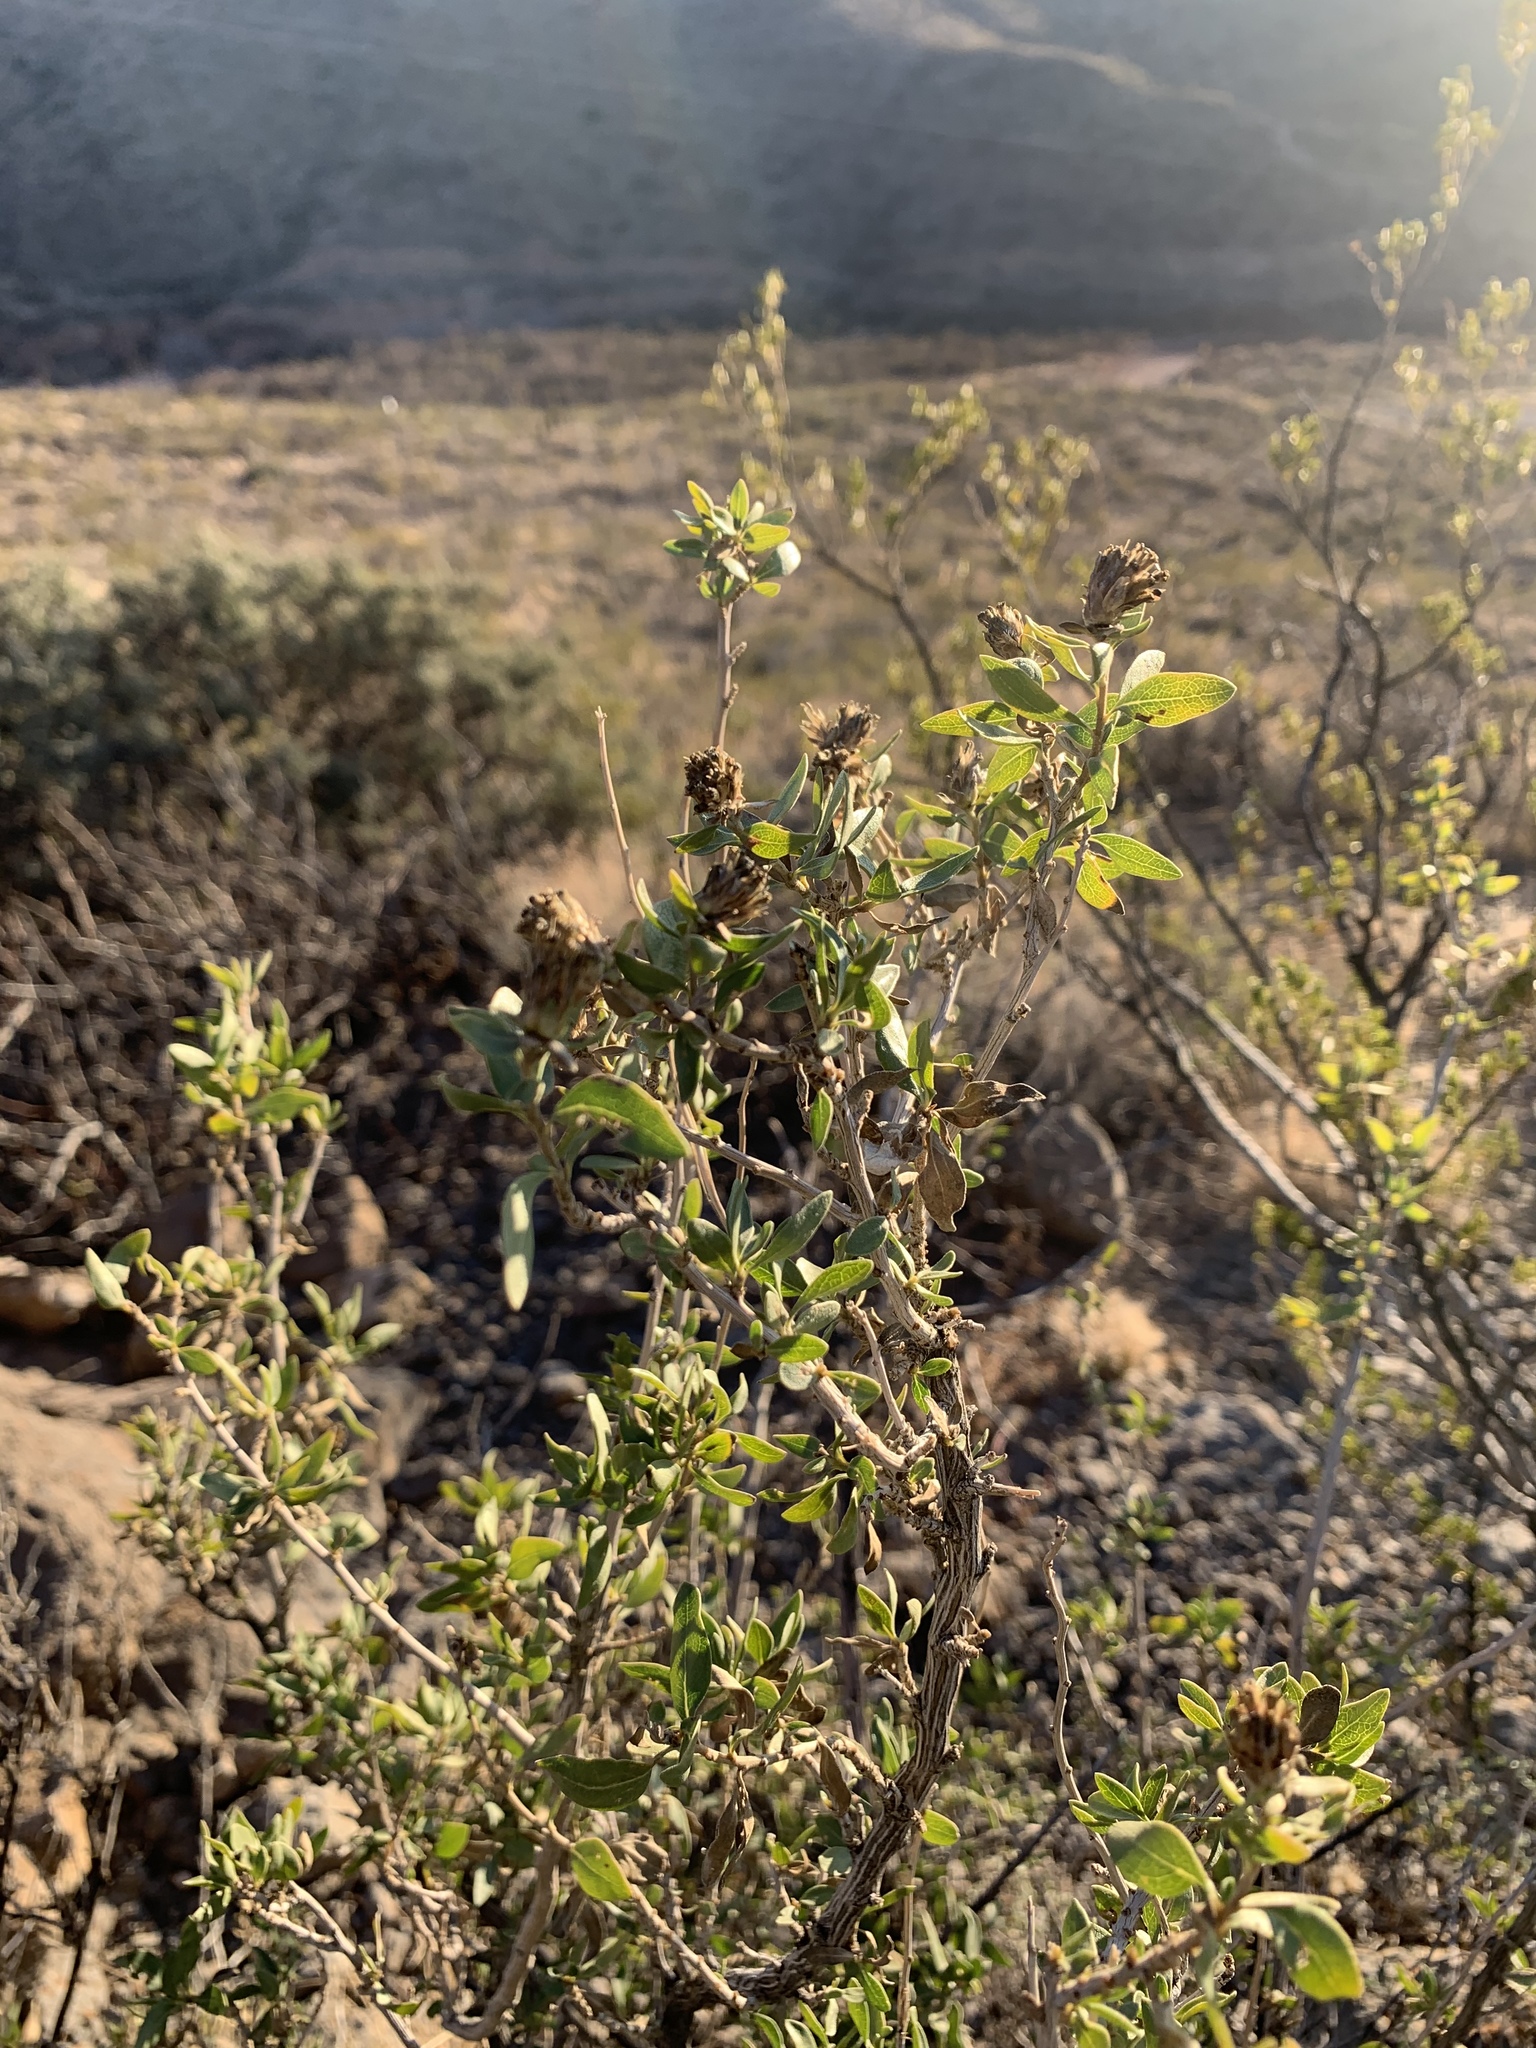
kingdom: Plantae
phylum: Tracheophyta
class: Magnoliopsida
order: Asterales
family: Asteraceae
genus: Flourensia
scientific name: Flourensia cernua
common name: Varnishbush
